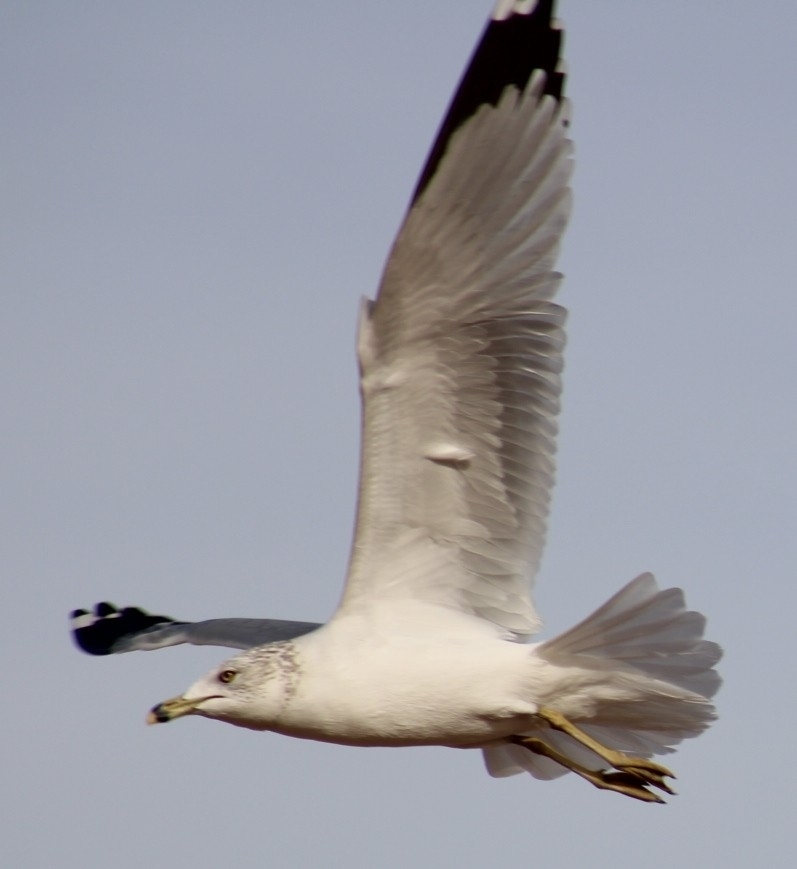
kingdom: Animalia
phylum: Chordata
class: Aves
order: Charadriiformes
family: Laridae
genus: Larus
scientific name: Larus delawarensis
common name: Ring-billed gull
